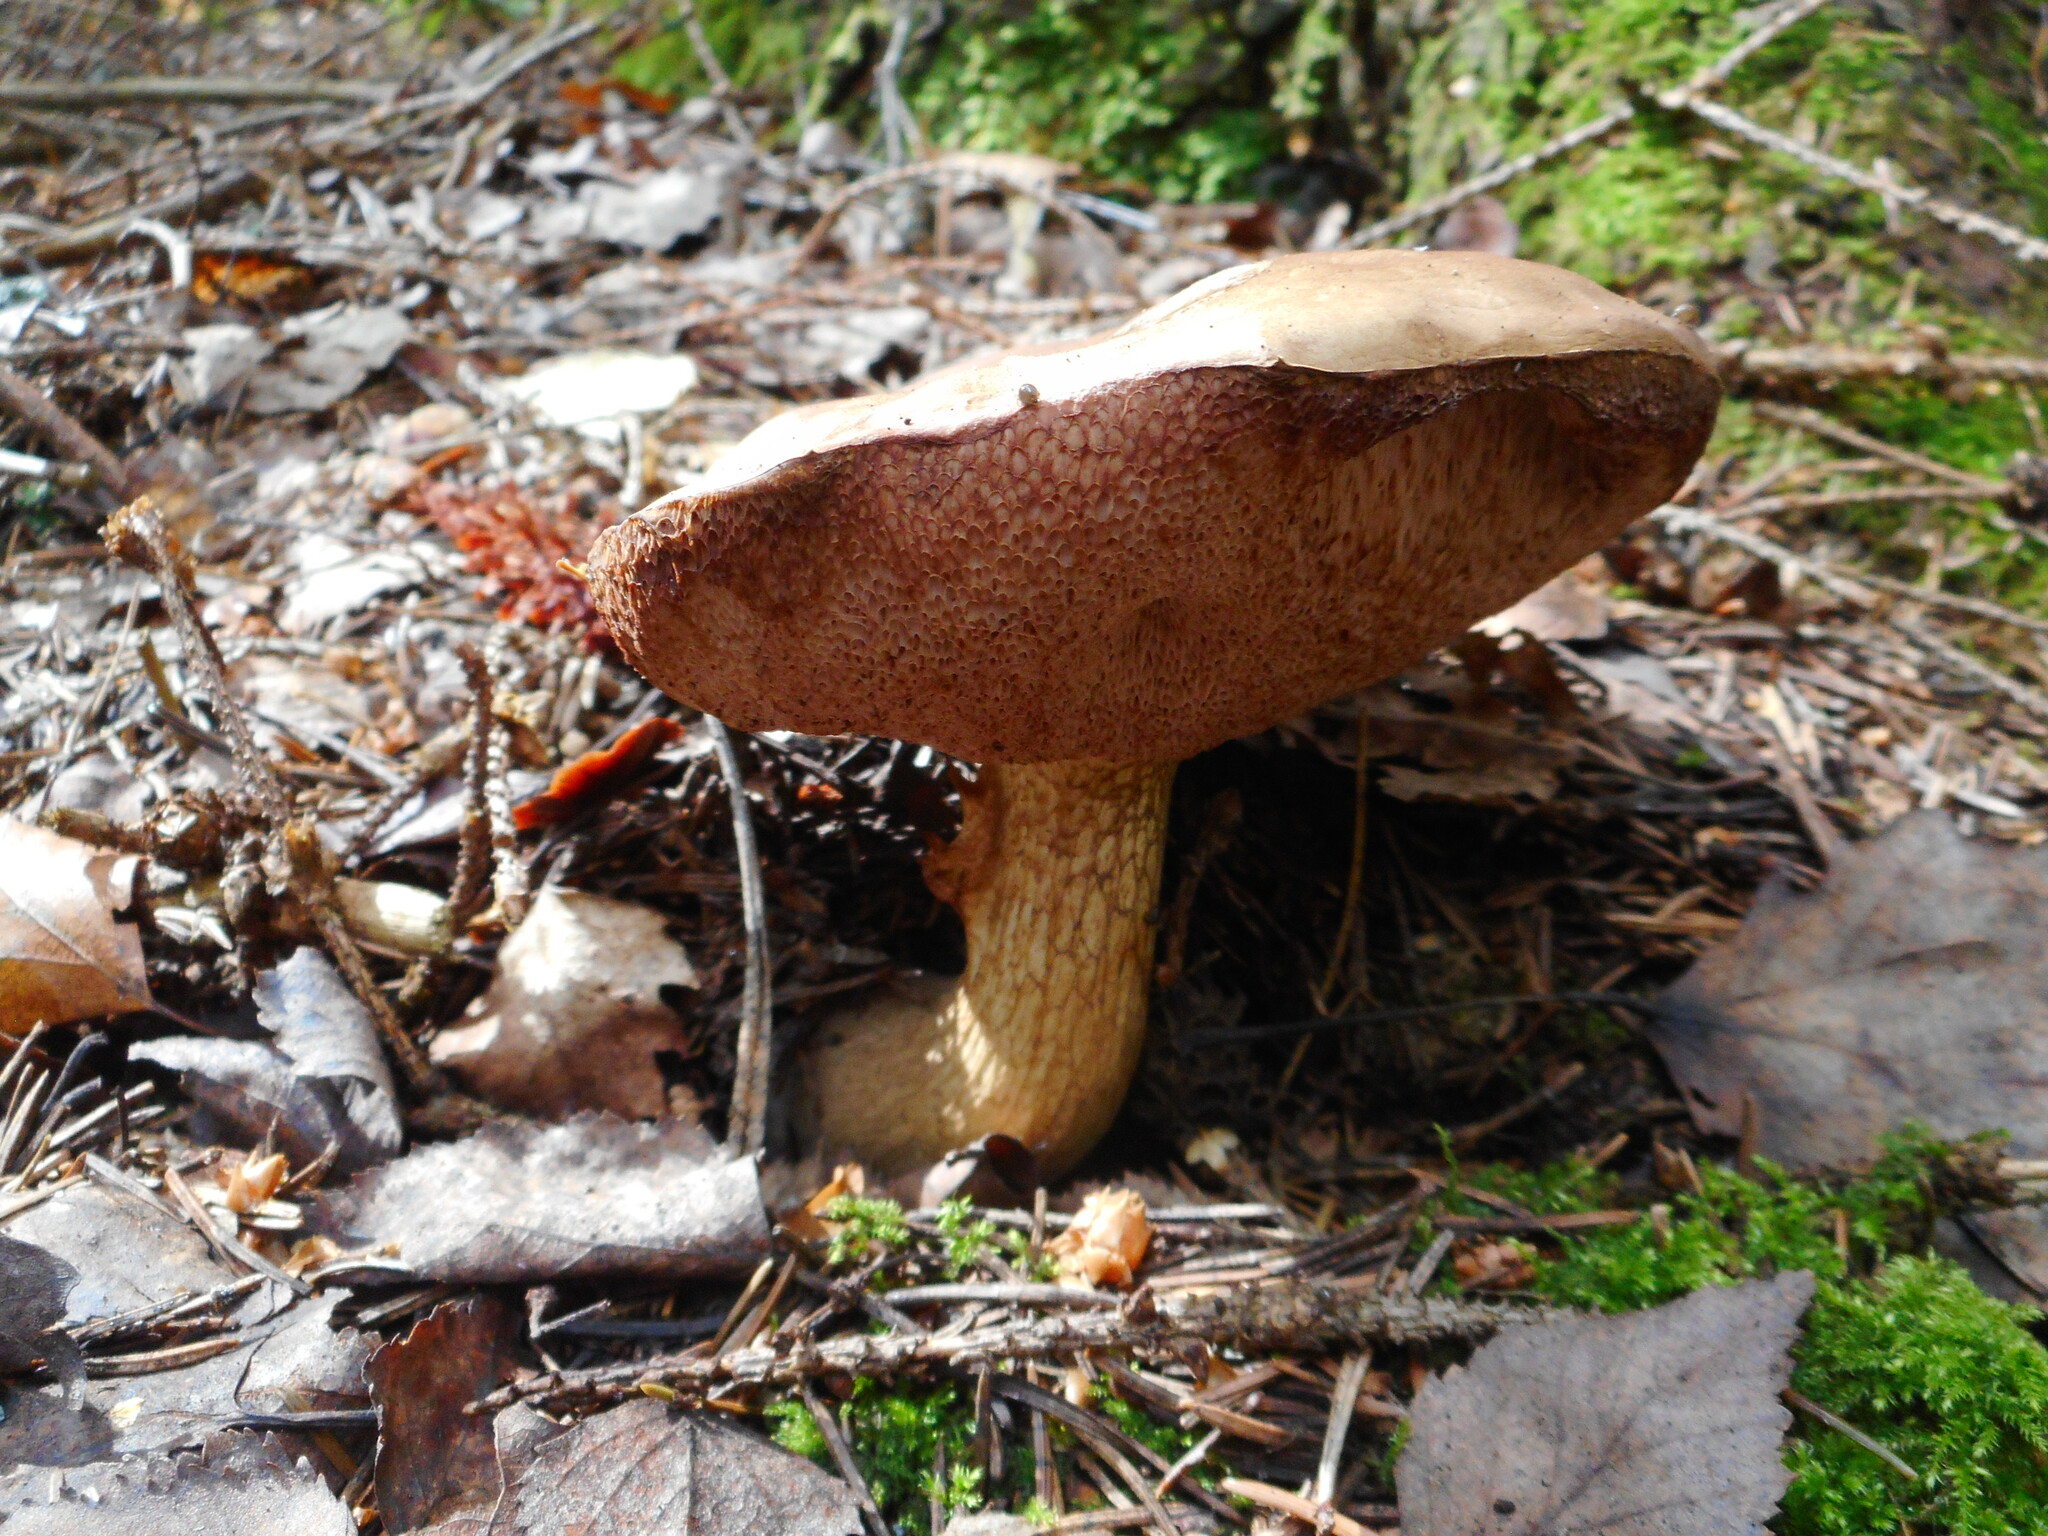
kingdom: Fungi
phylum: Basidiomycota
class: Agaricomycetes
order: Boletales
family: Boletaceae
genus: Tylopilus
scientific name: Tylopilus felleus
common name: Bitter bolete
